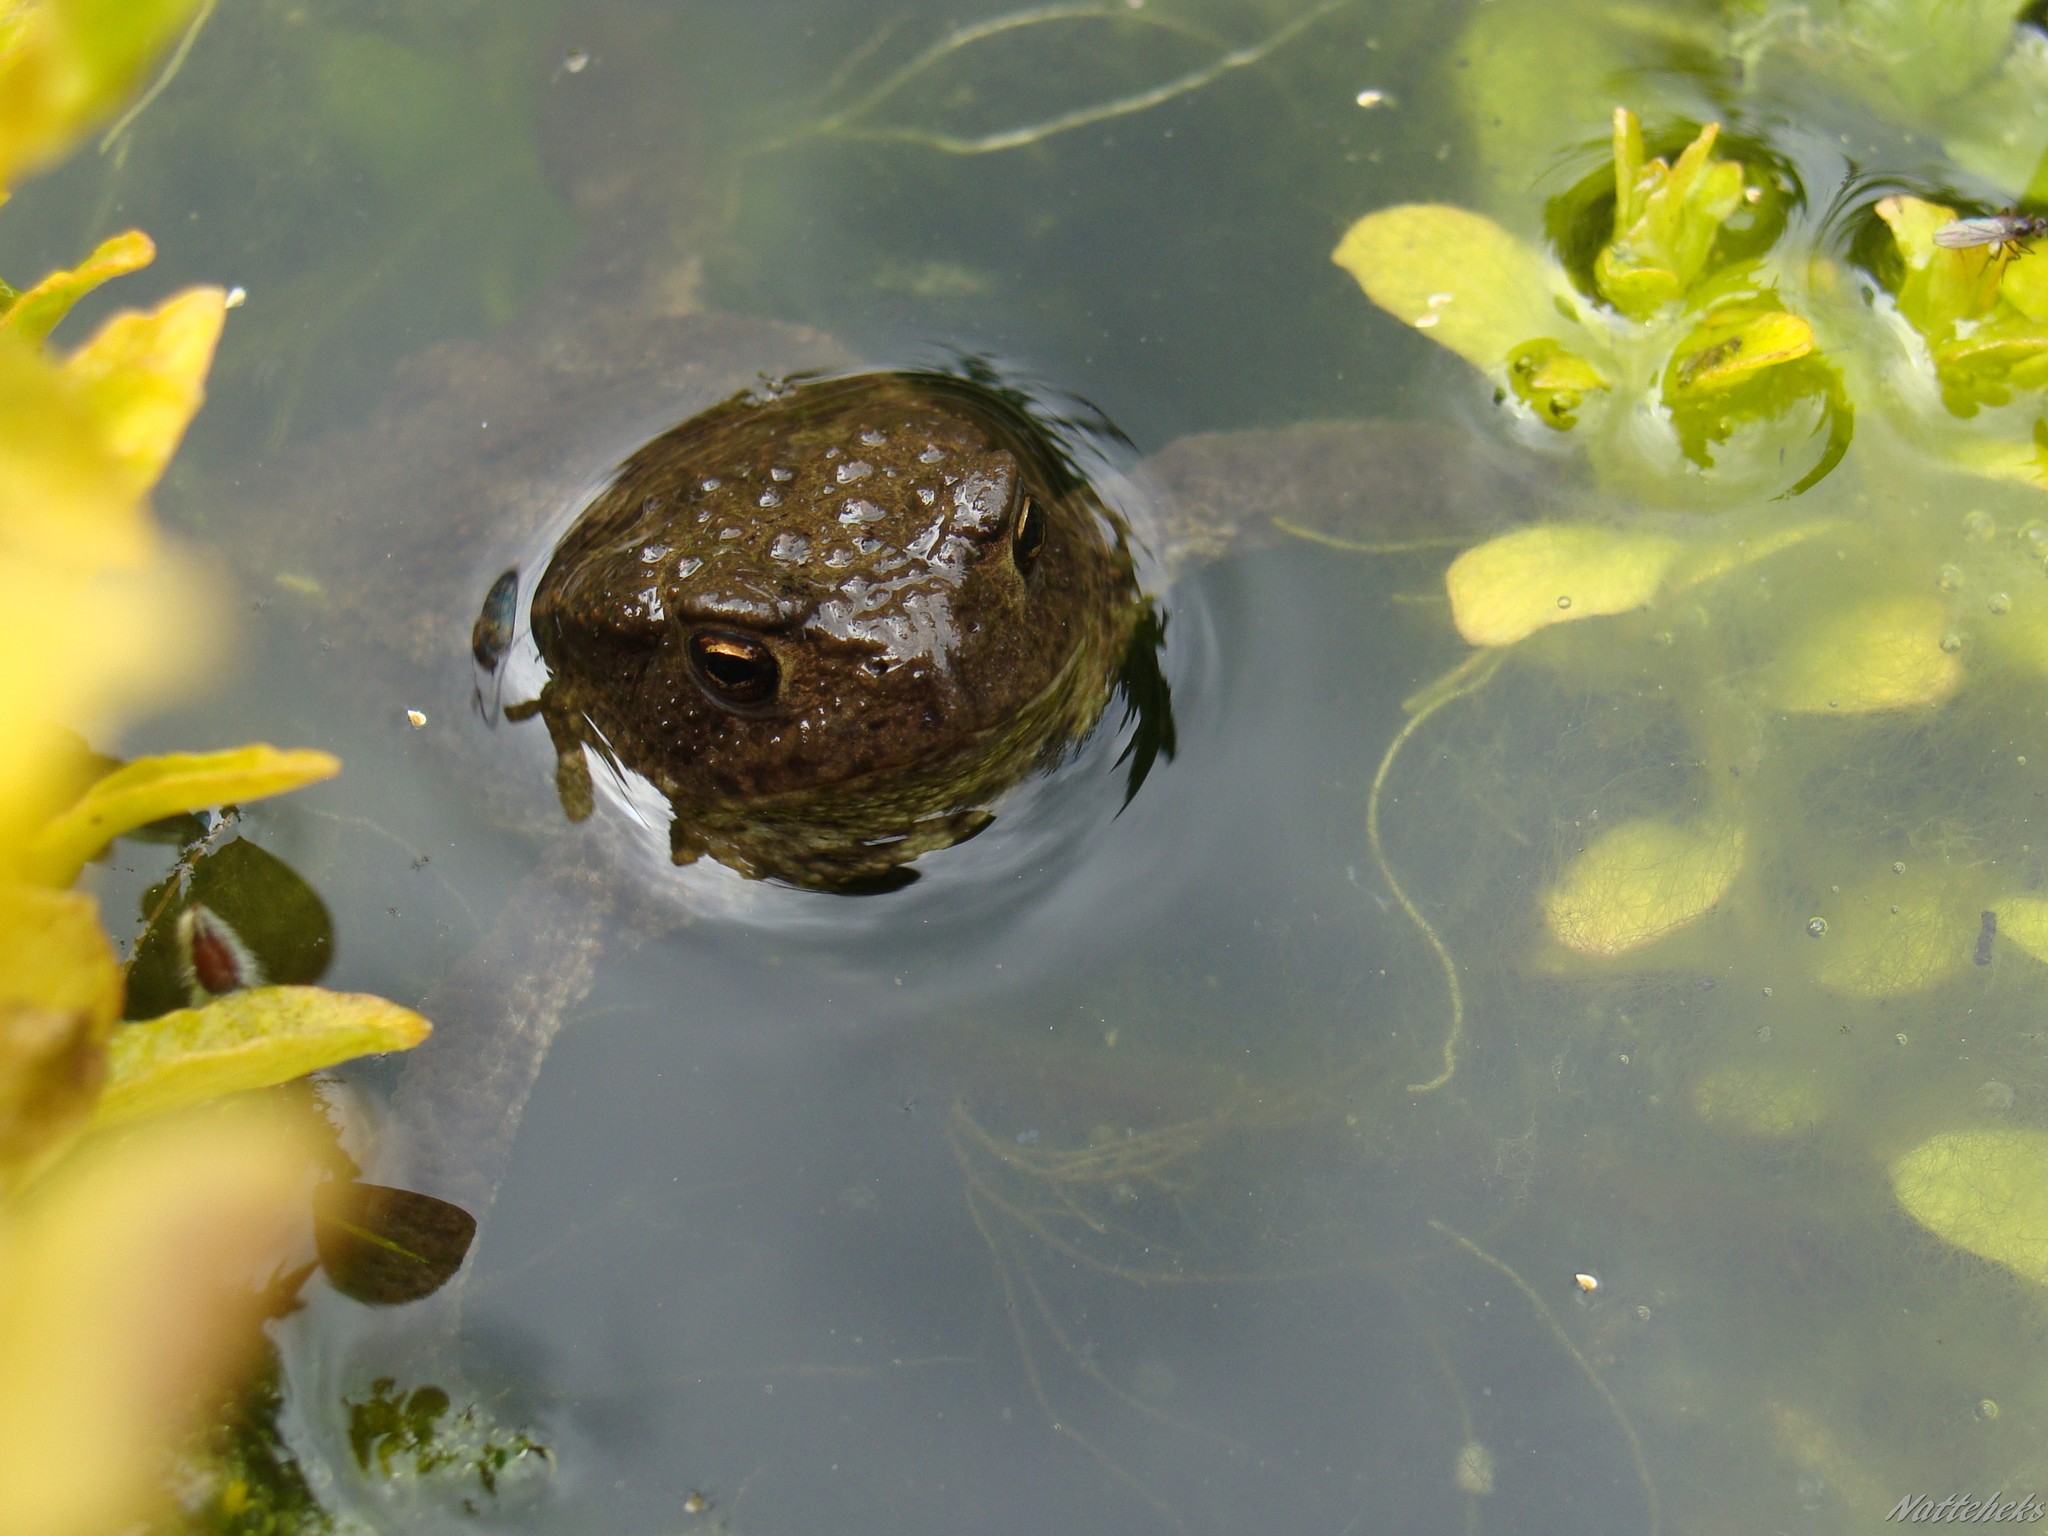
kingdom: Animalia
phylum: Chordata
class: Amphibia
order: Anura
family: Bufonidae
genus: Bufo
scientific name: Bufo bufo
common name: Common toad
